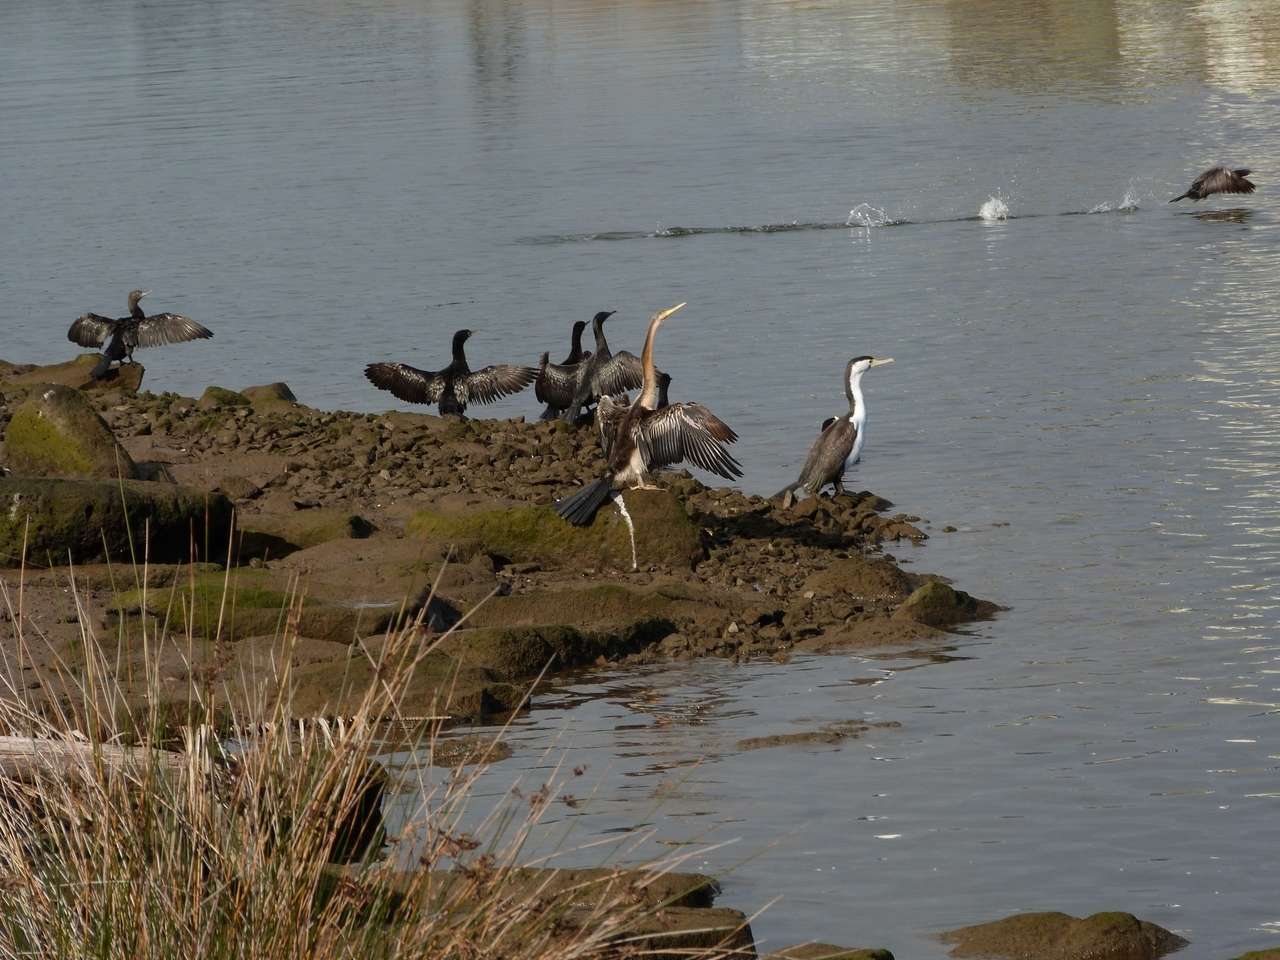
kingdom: Animalia
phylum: Chordata
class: Aves
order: Suliformes
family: Phalacrocoracidae
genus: Phalacrocorax
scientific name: Phalacrocorax varius
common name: Pied cormorant
